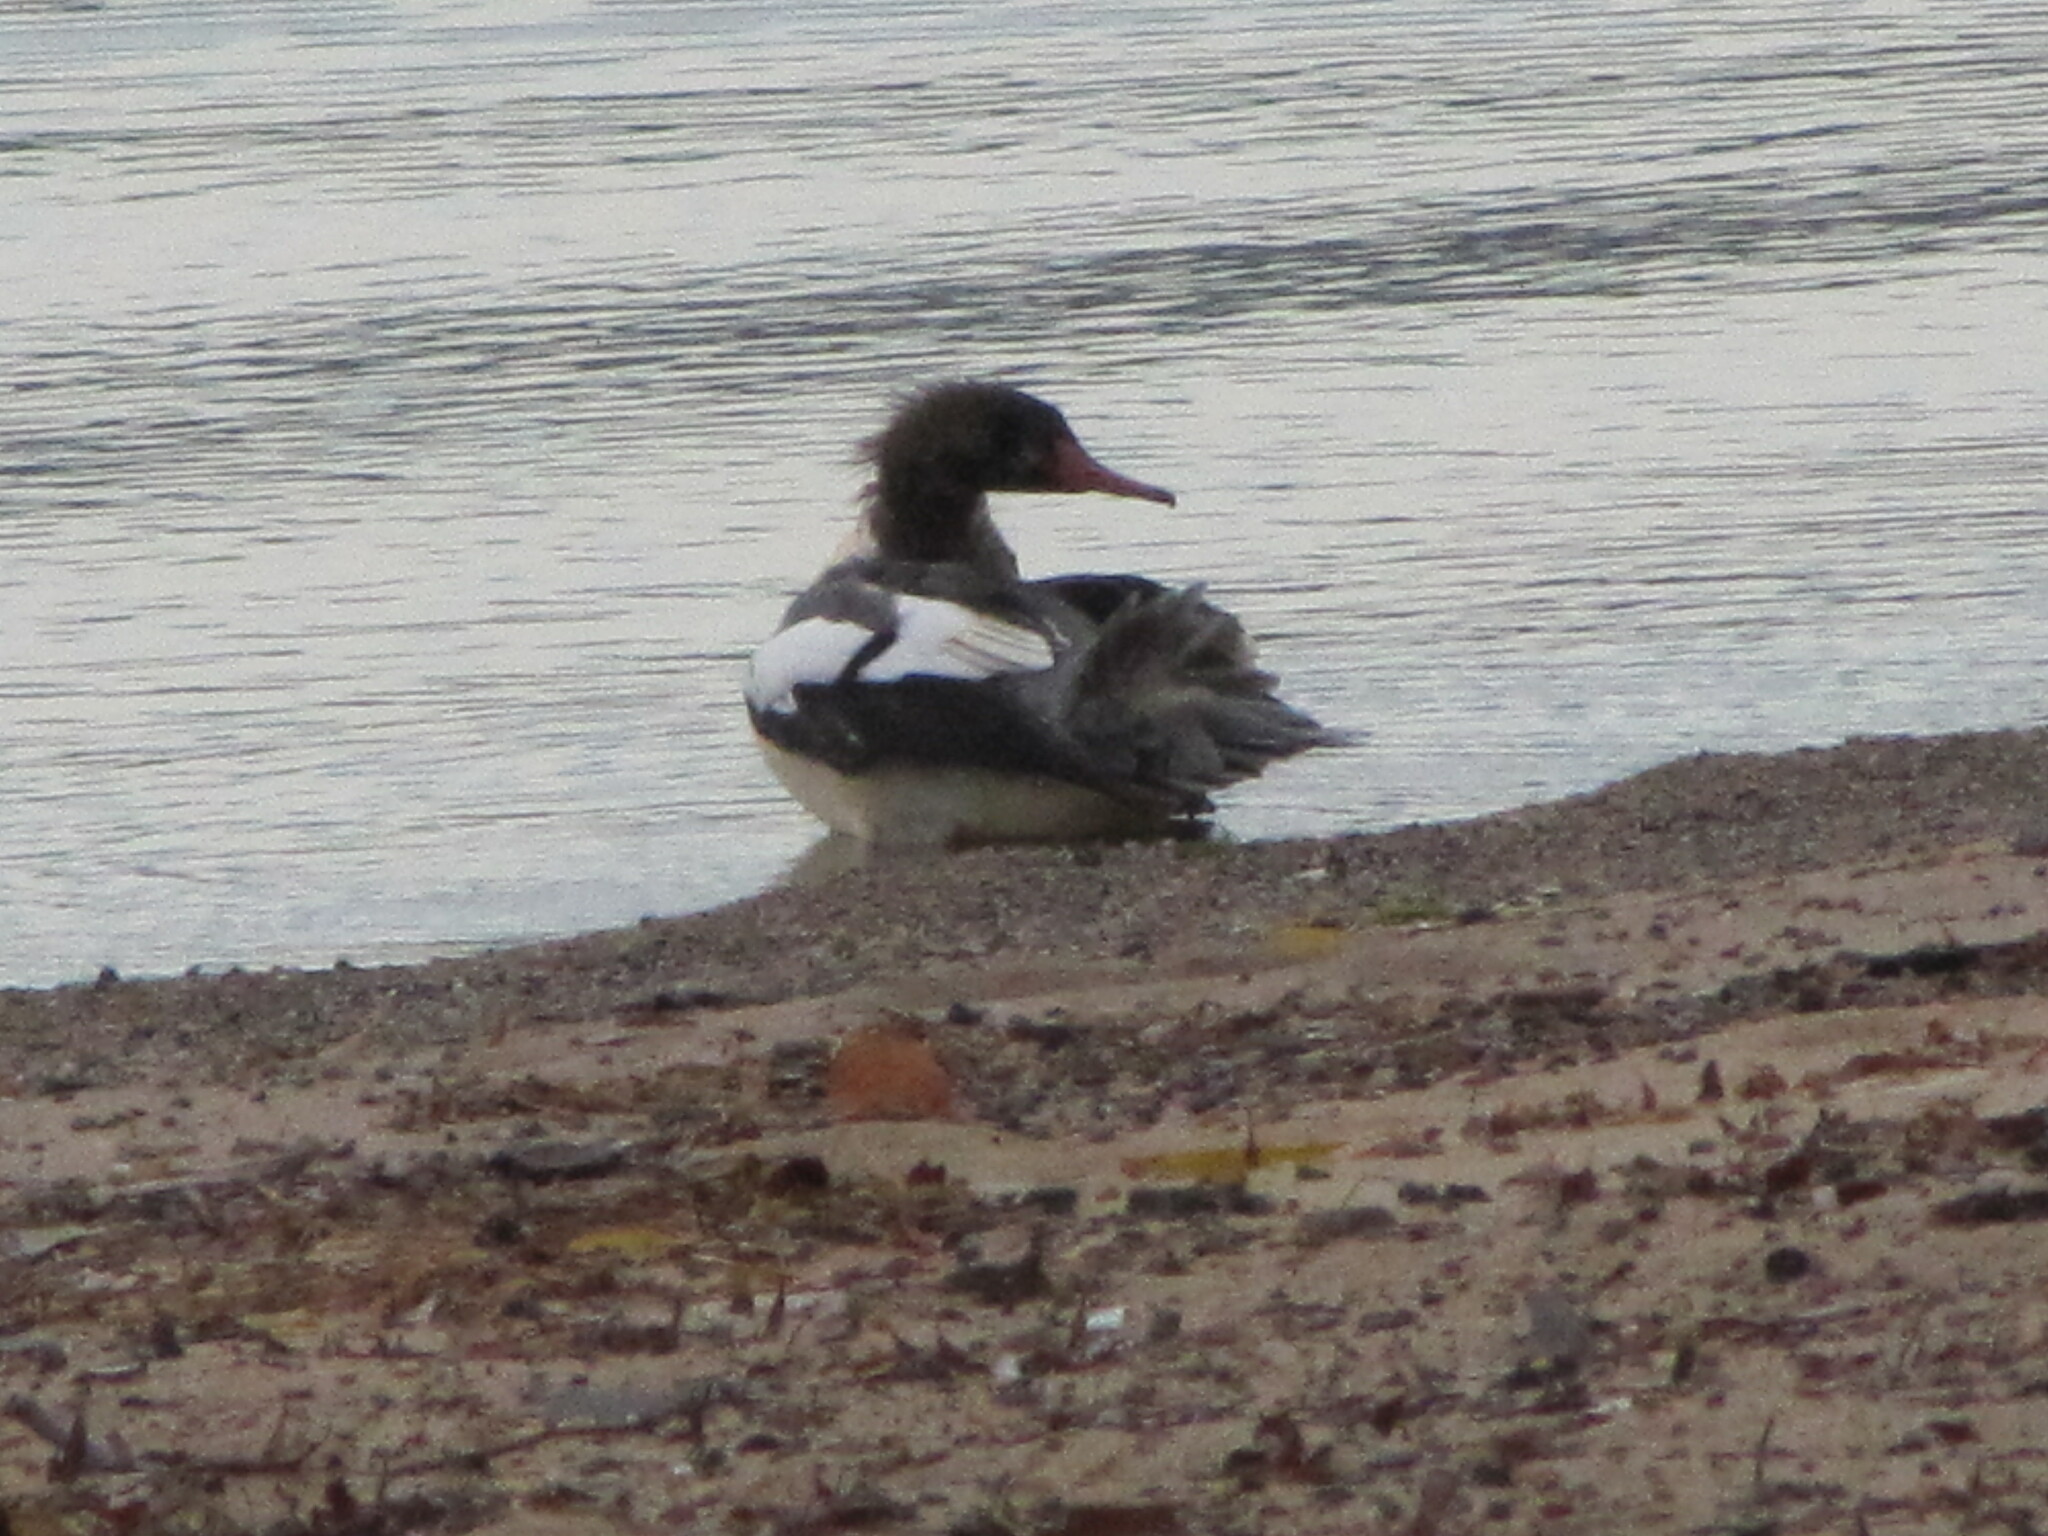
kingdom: Animalia
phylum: Chordata
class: Aves
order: Anseriformes
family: Anatidae
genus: Mergus
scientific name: Mergus merganser
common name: Common merganser
